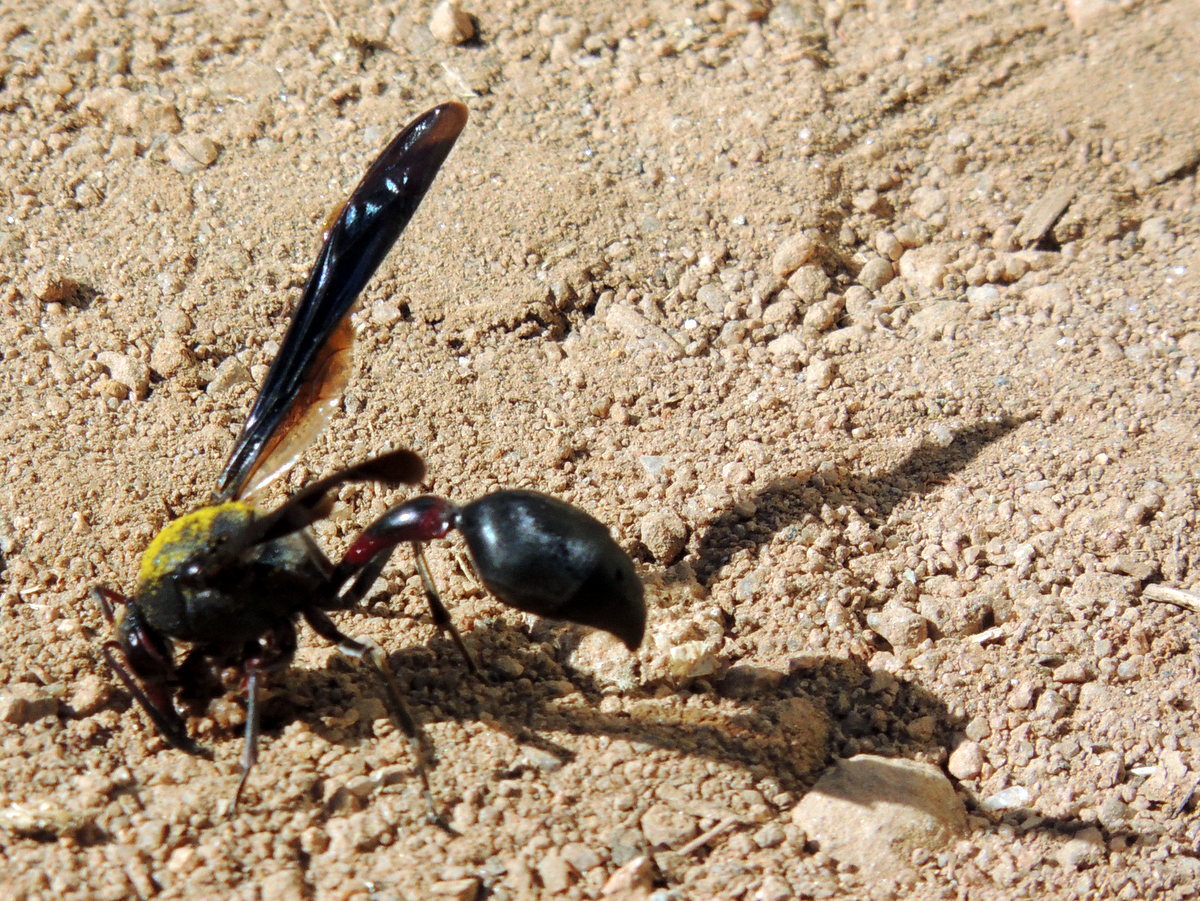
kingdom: Animalia
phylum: Arthropoda
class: Insecta
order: Hymenoptera
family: Eumenidae
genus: Delta
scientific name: Delta emarginatum
